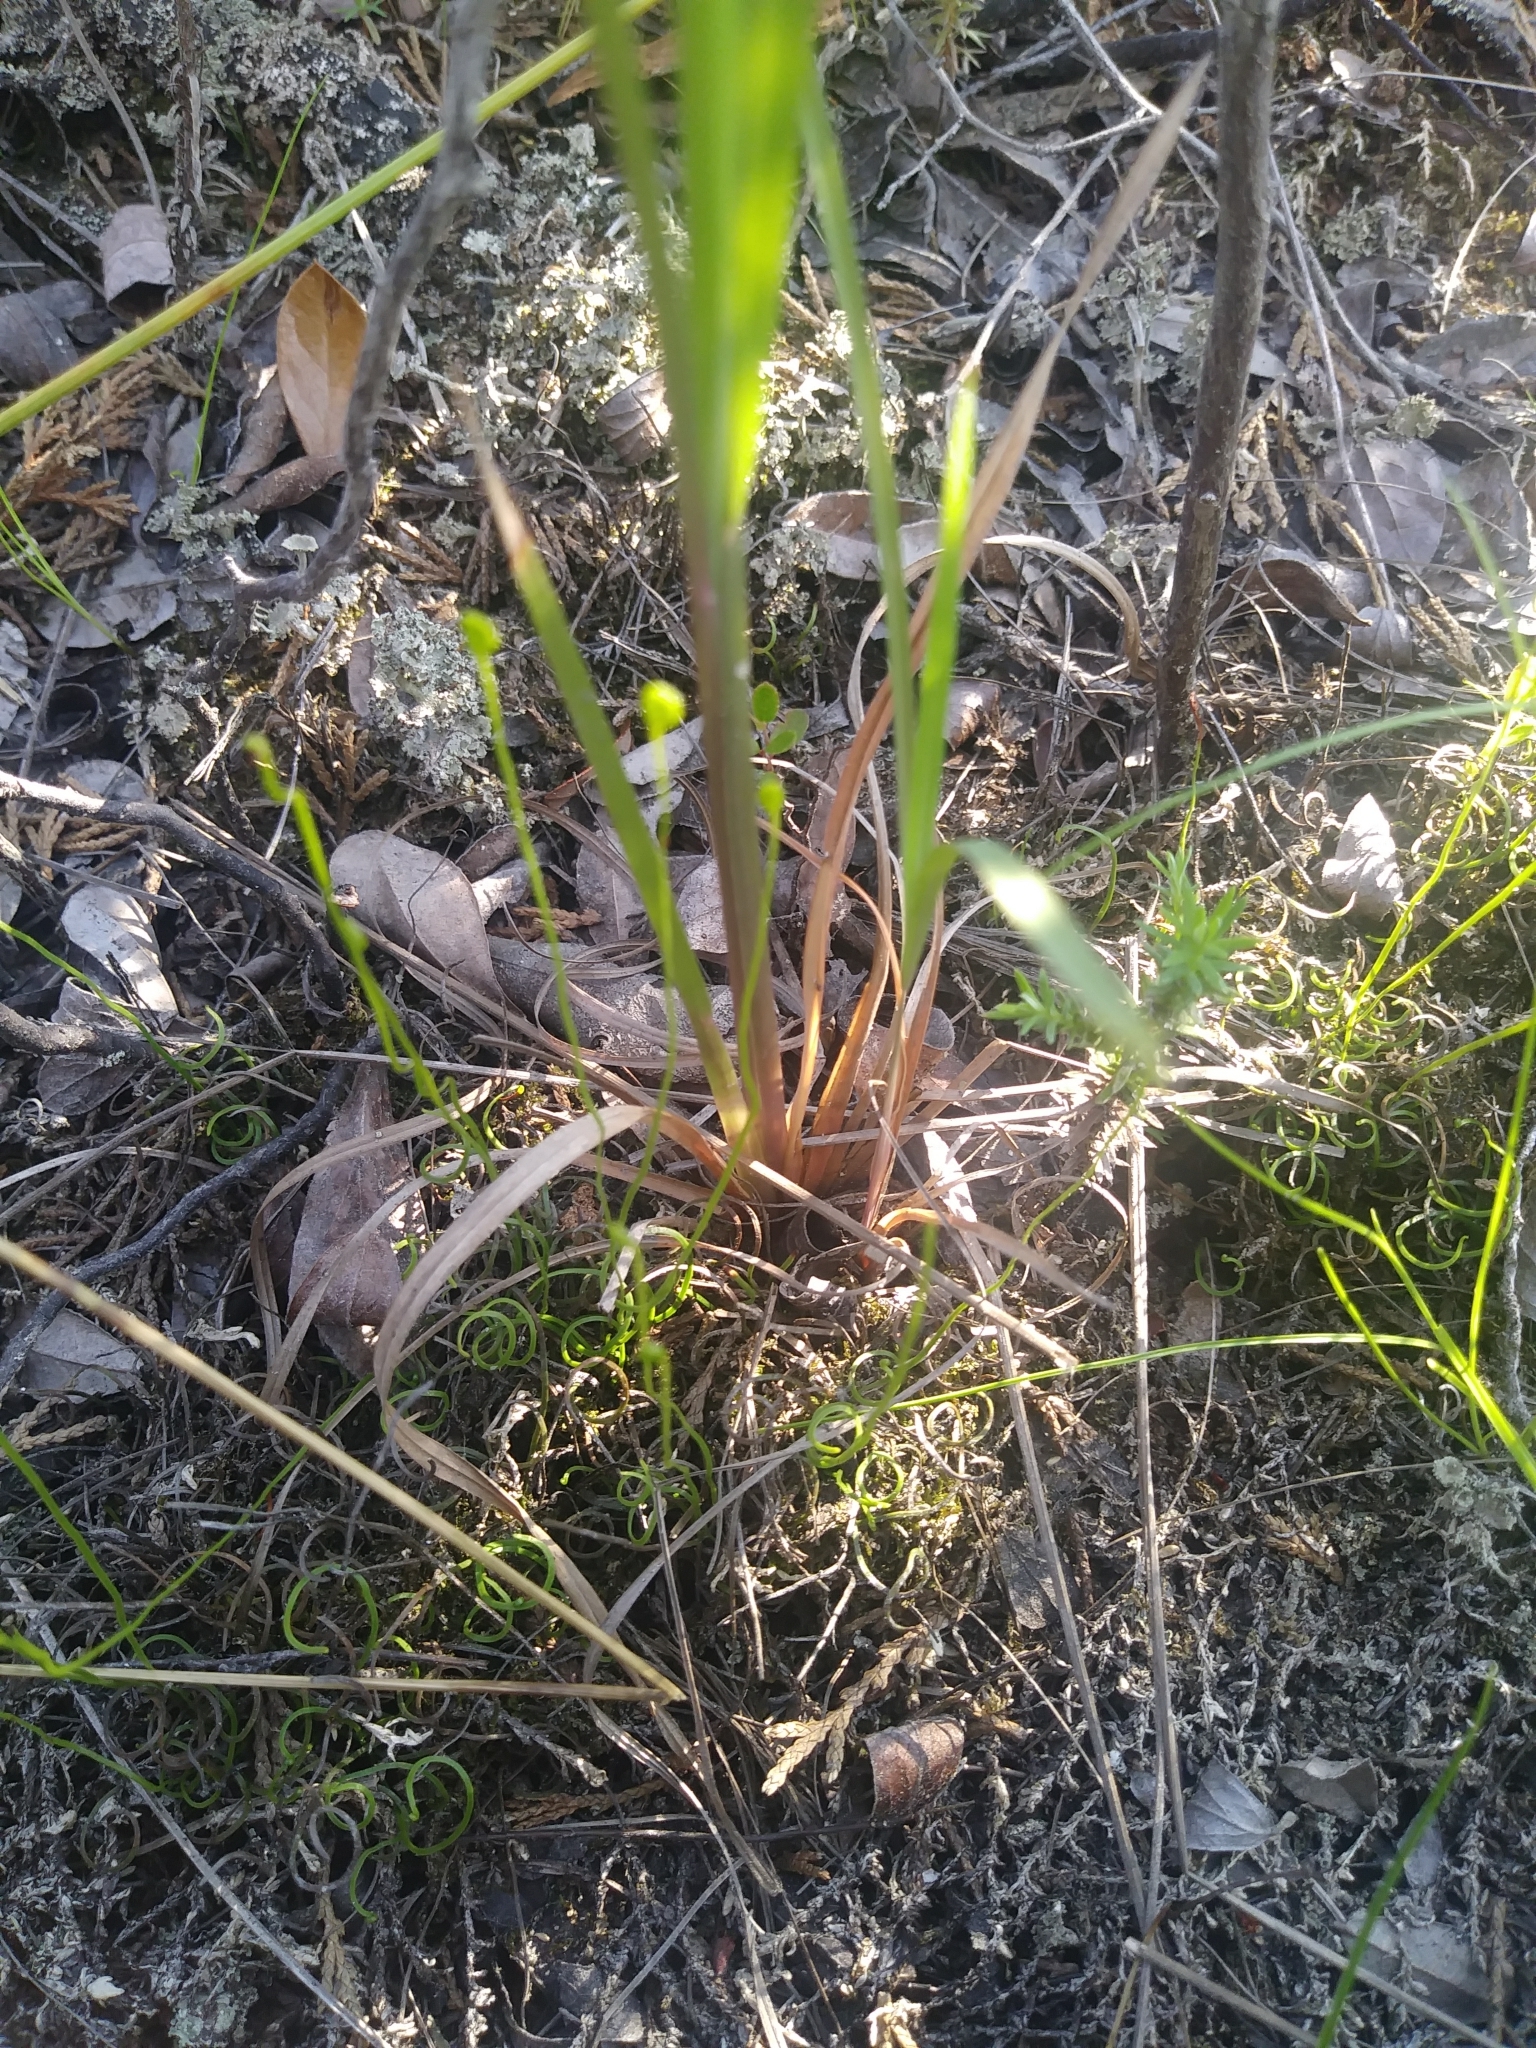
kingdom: Plantae
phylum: Tracheophyta
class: Polypodiopsida
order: Schizaeales
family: Schizaeaceae
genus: Schizaea
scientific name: Schizaea pusilla
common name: Curly-grass fern
